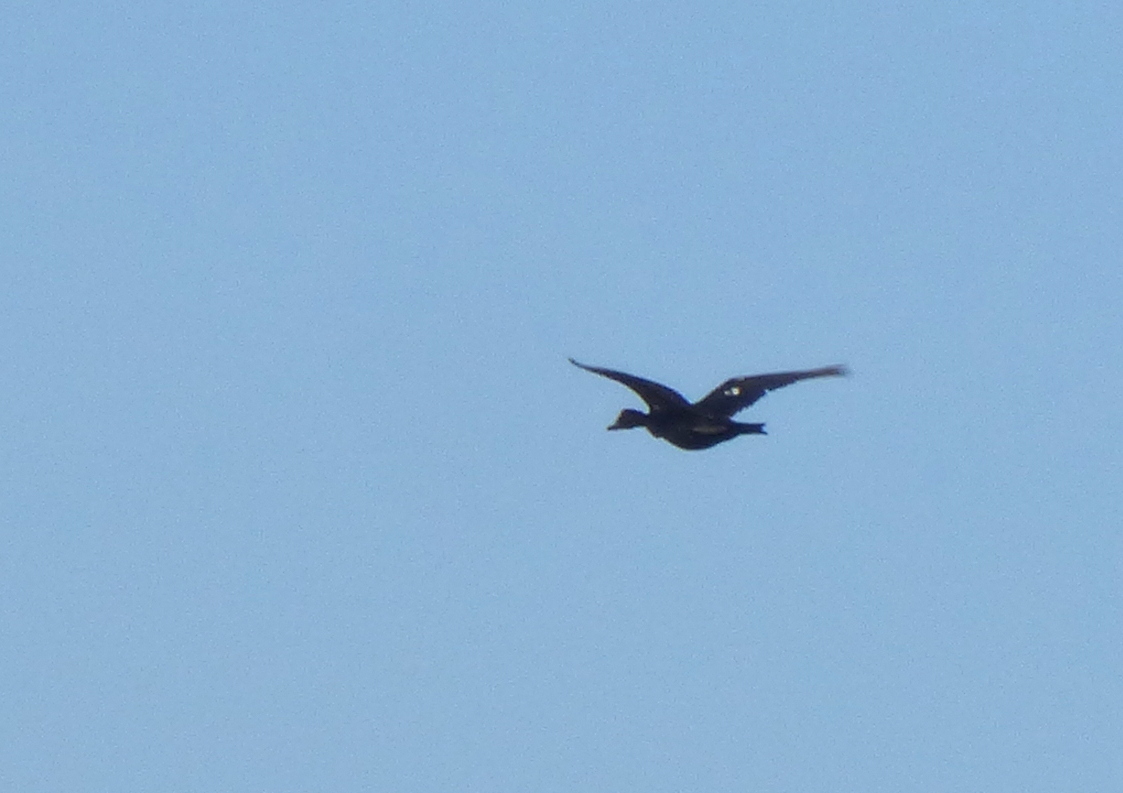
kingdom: Animalia
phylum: Chordata
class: Aves
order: Anseriformes
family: Anatidae
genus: Cairina
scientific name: Cairina moschata
